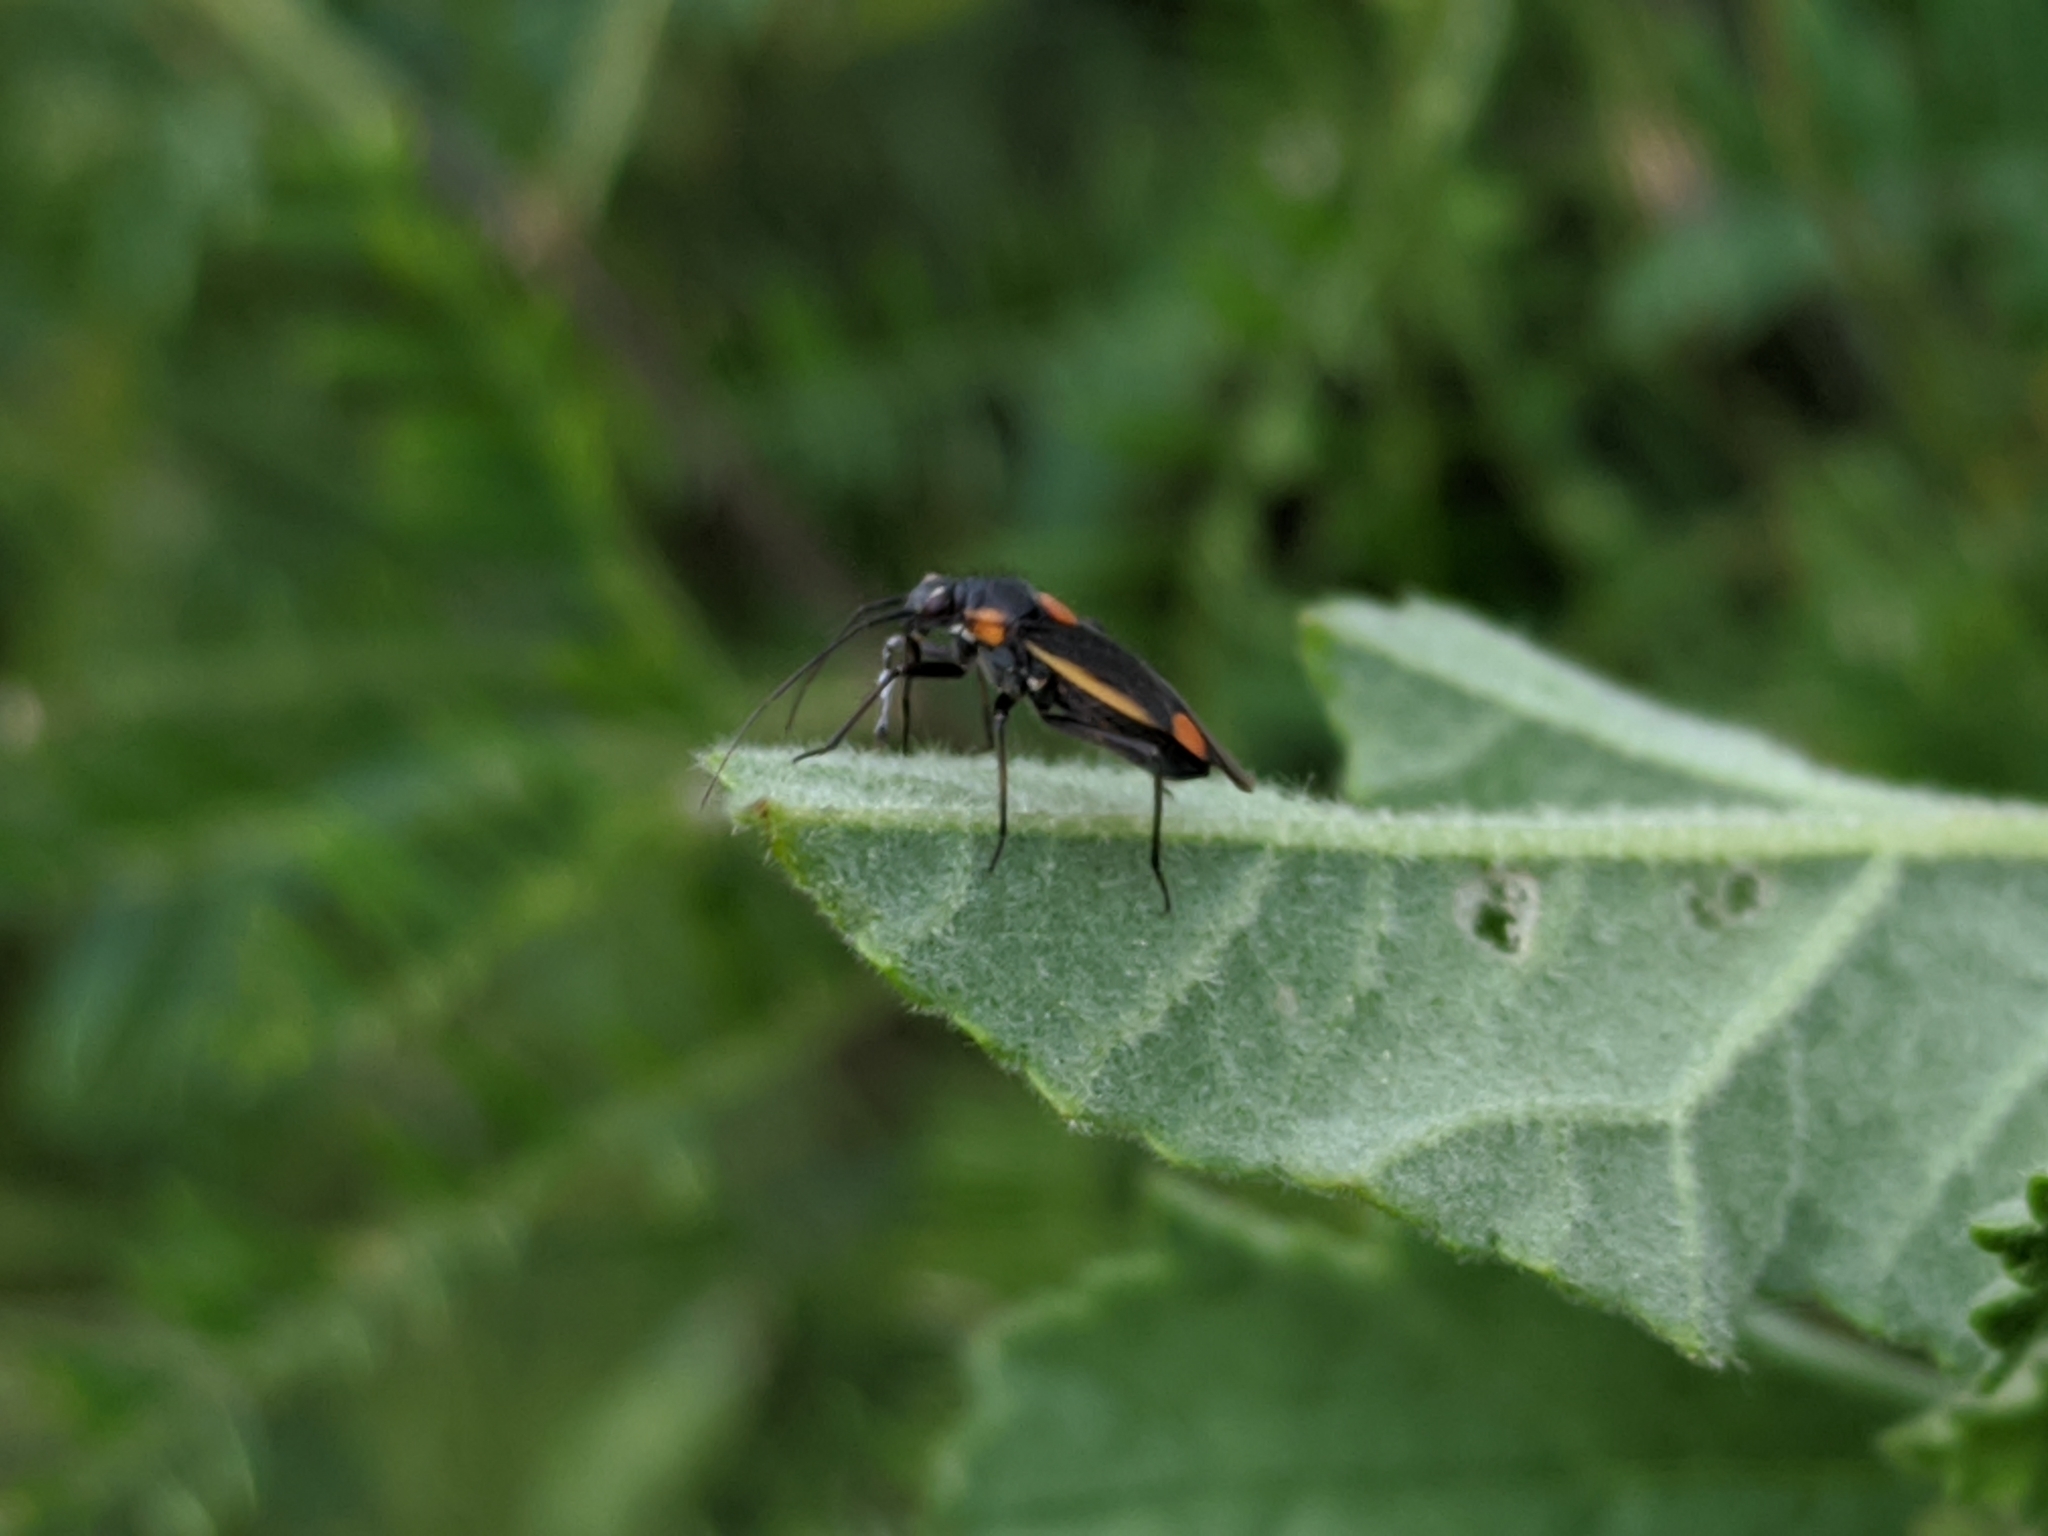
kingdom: Animalia
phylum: Arthropoda
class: Insecta
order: Hemiptera
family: Miridae
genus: Capsodes
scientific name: Capsodes gothicus
